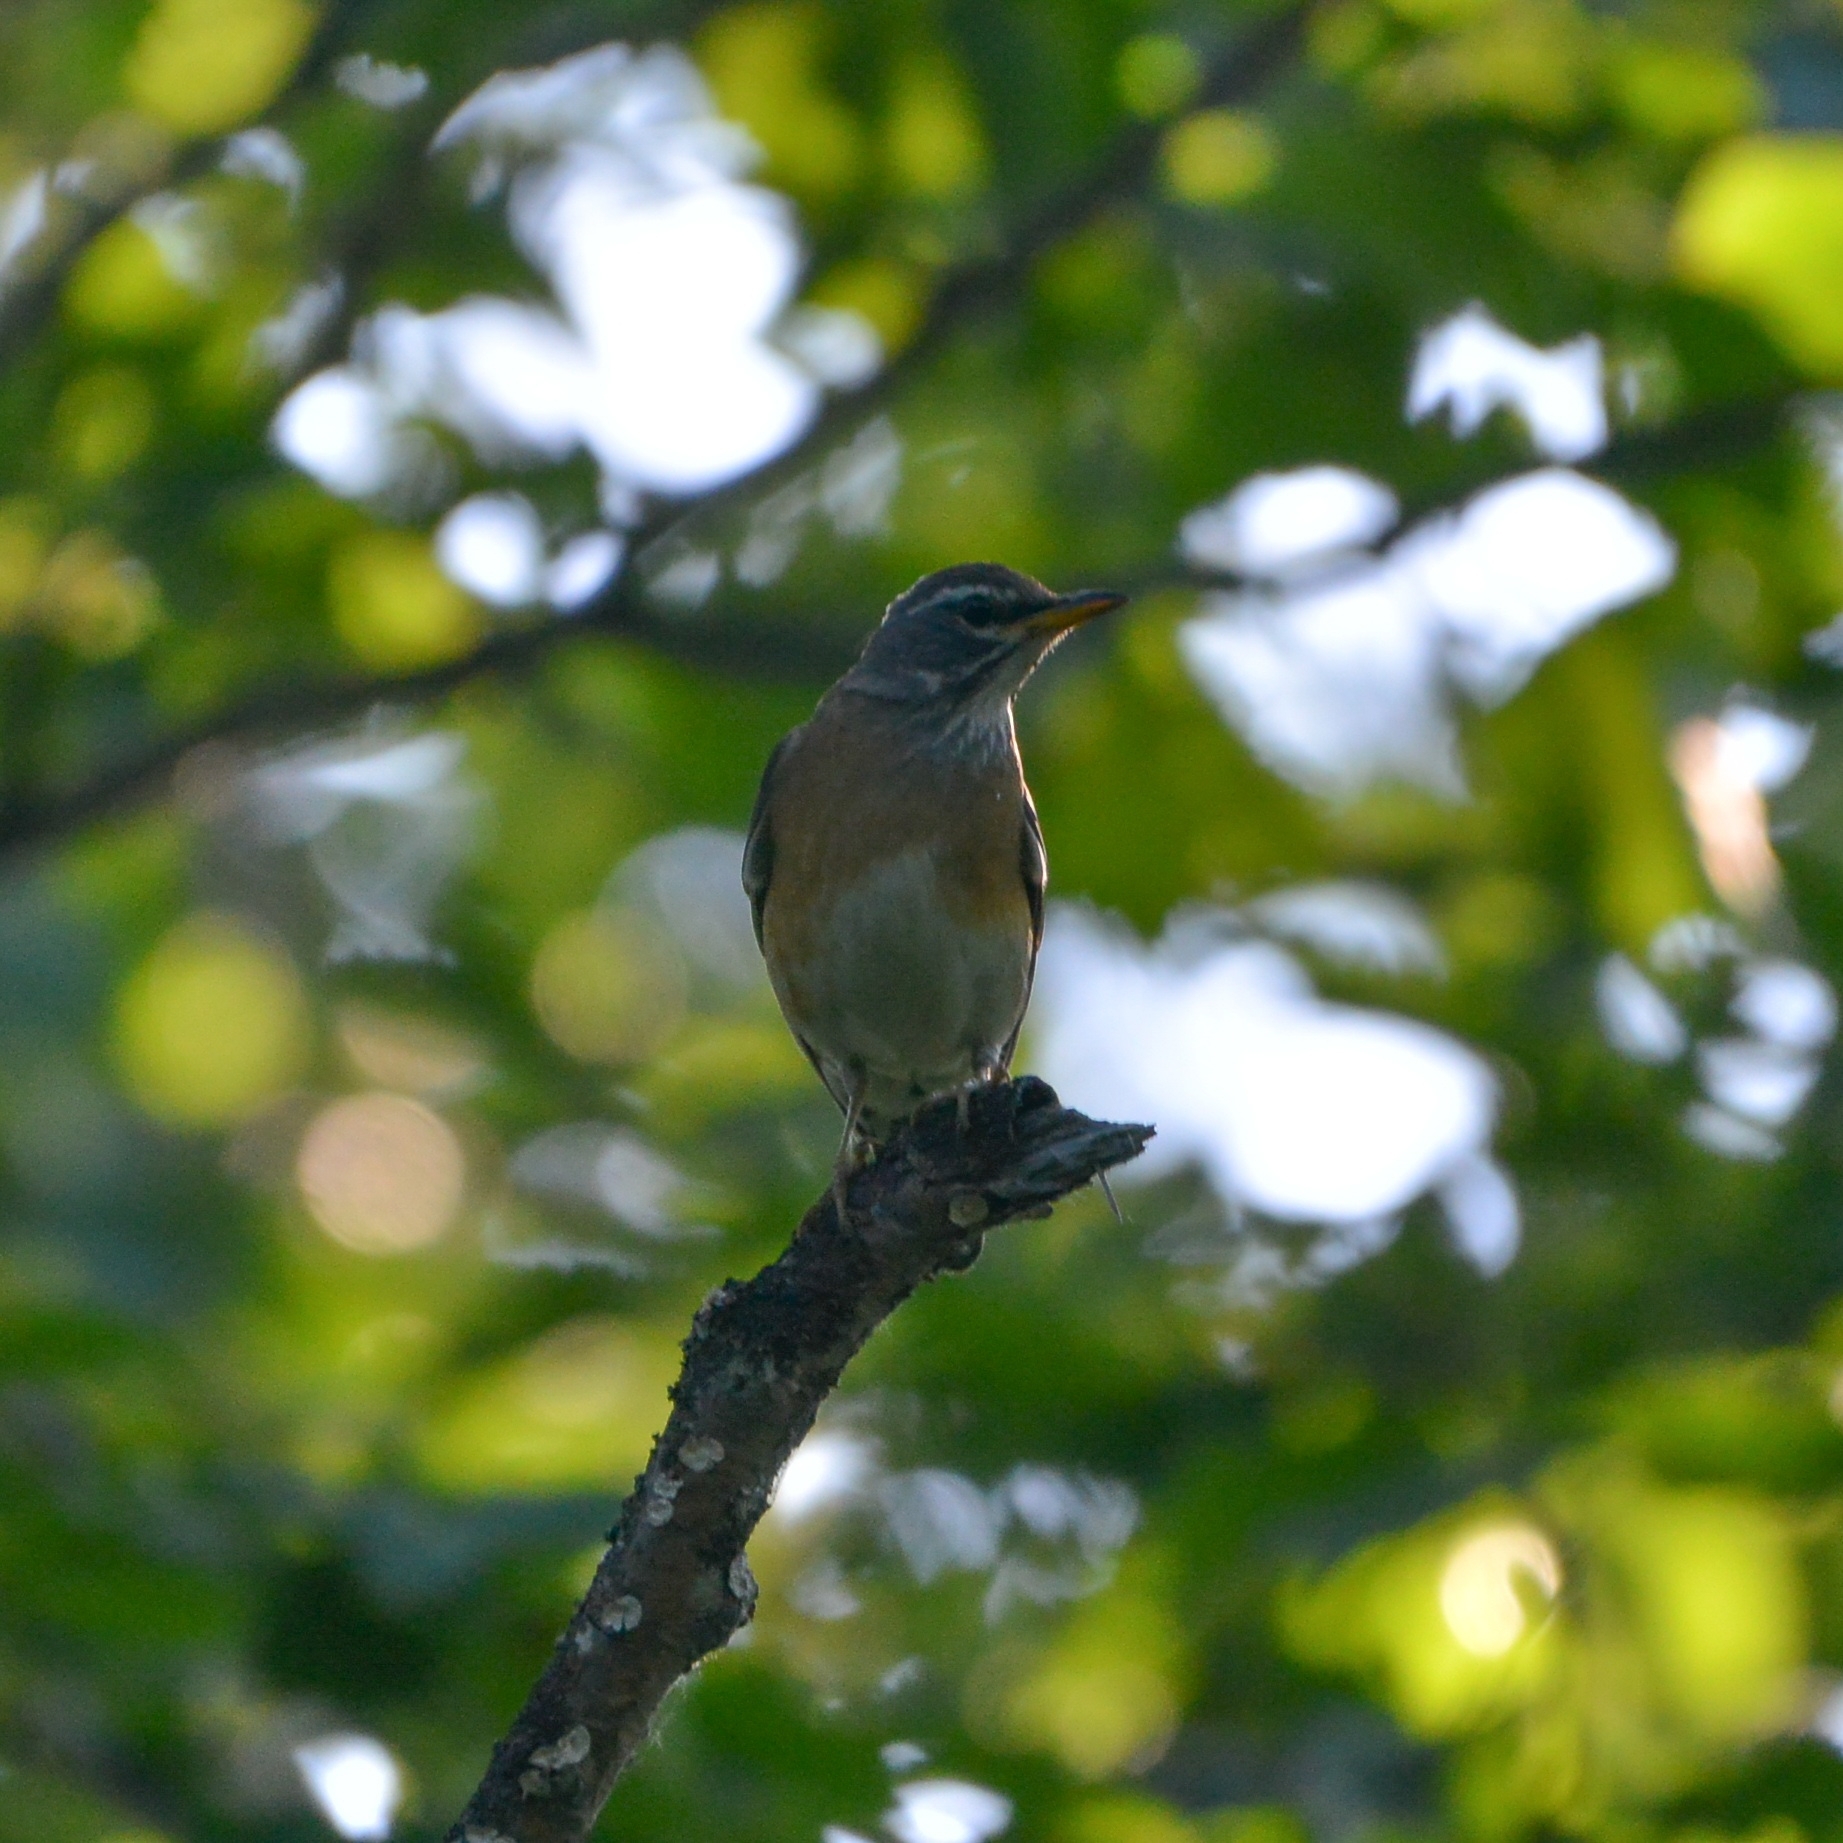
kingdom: Animalia
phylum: Chordata
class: Aves
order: Passeriformes
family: Turdidae
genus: Turdus
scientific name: Turdus obscurus
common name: Eyebrowed thrush
